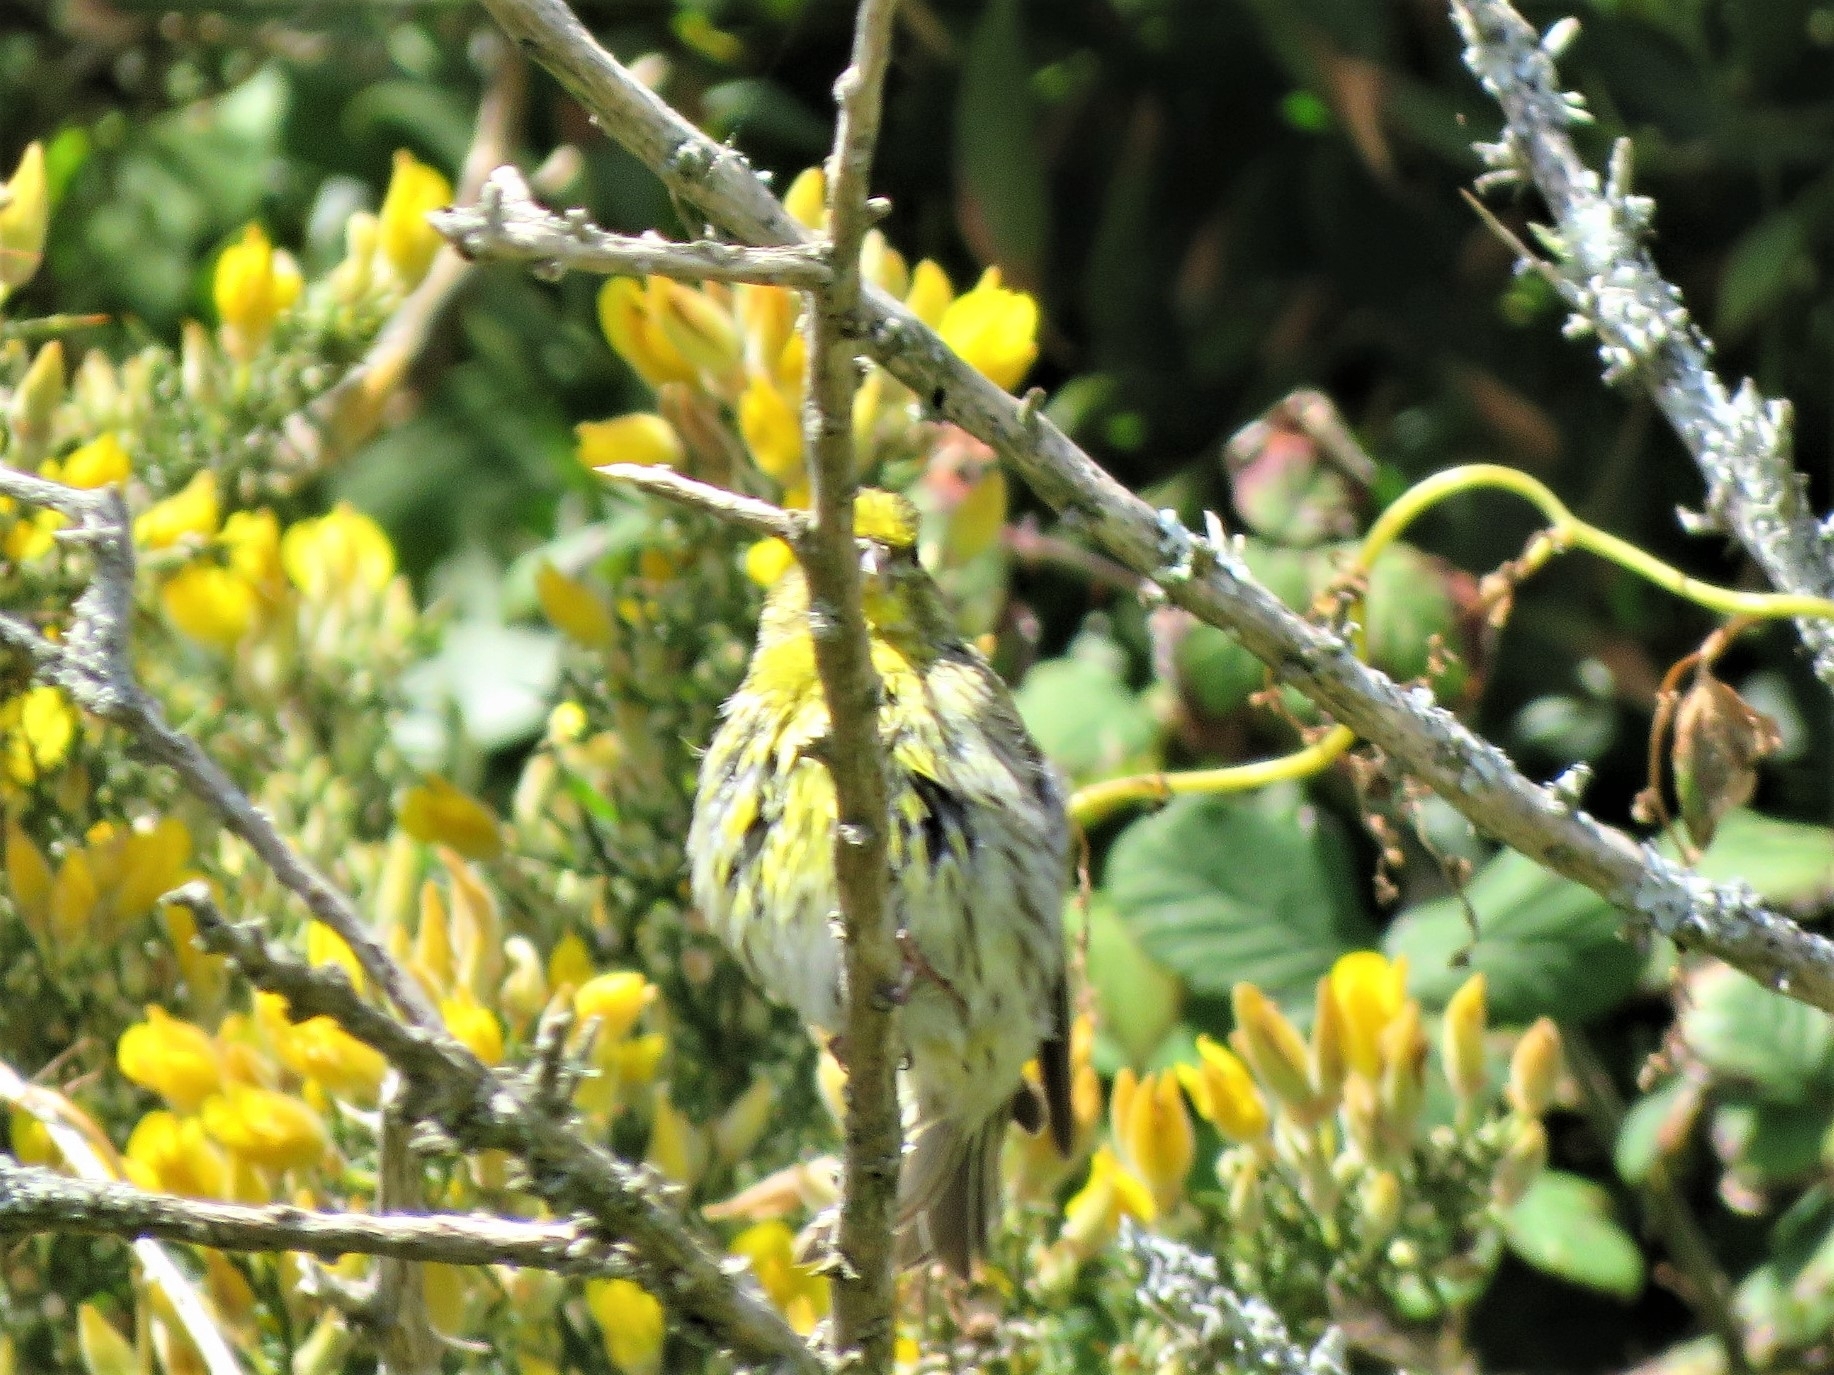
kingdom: Animalia
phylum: Chordata
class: Aves
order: Passeriformes
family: Fringillidae
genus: Serinus
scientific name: Serinus serinus
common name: European serin
